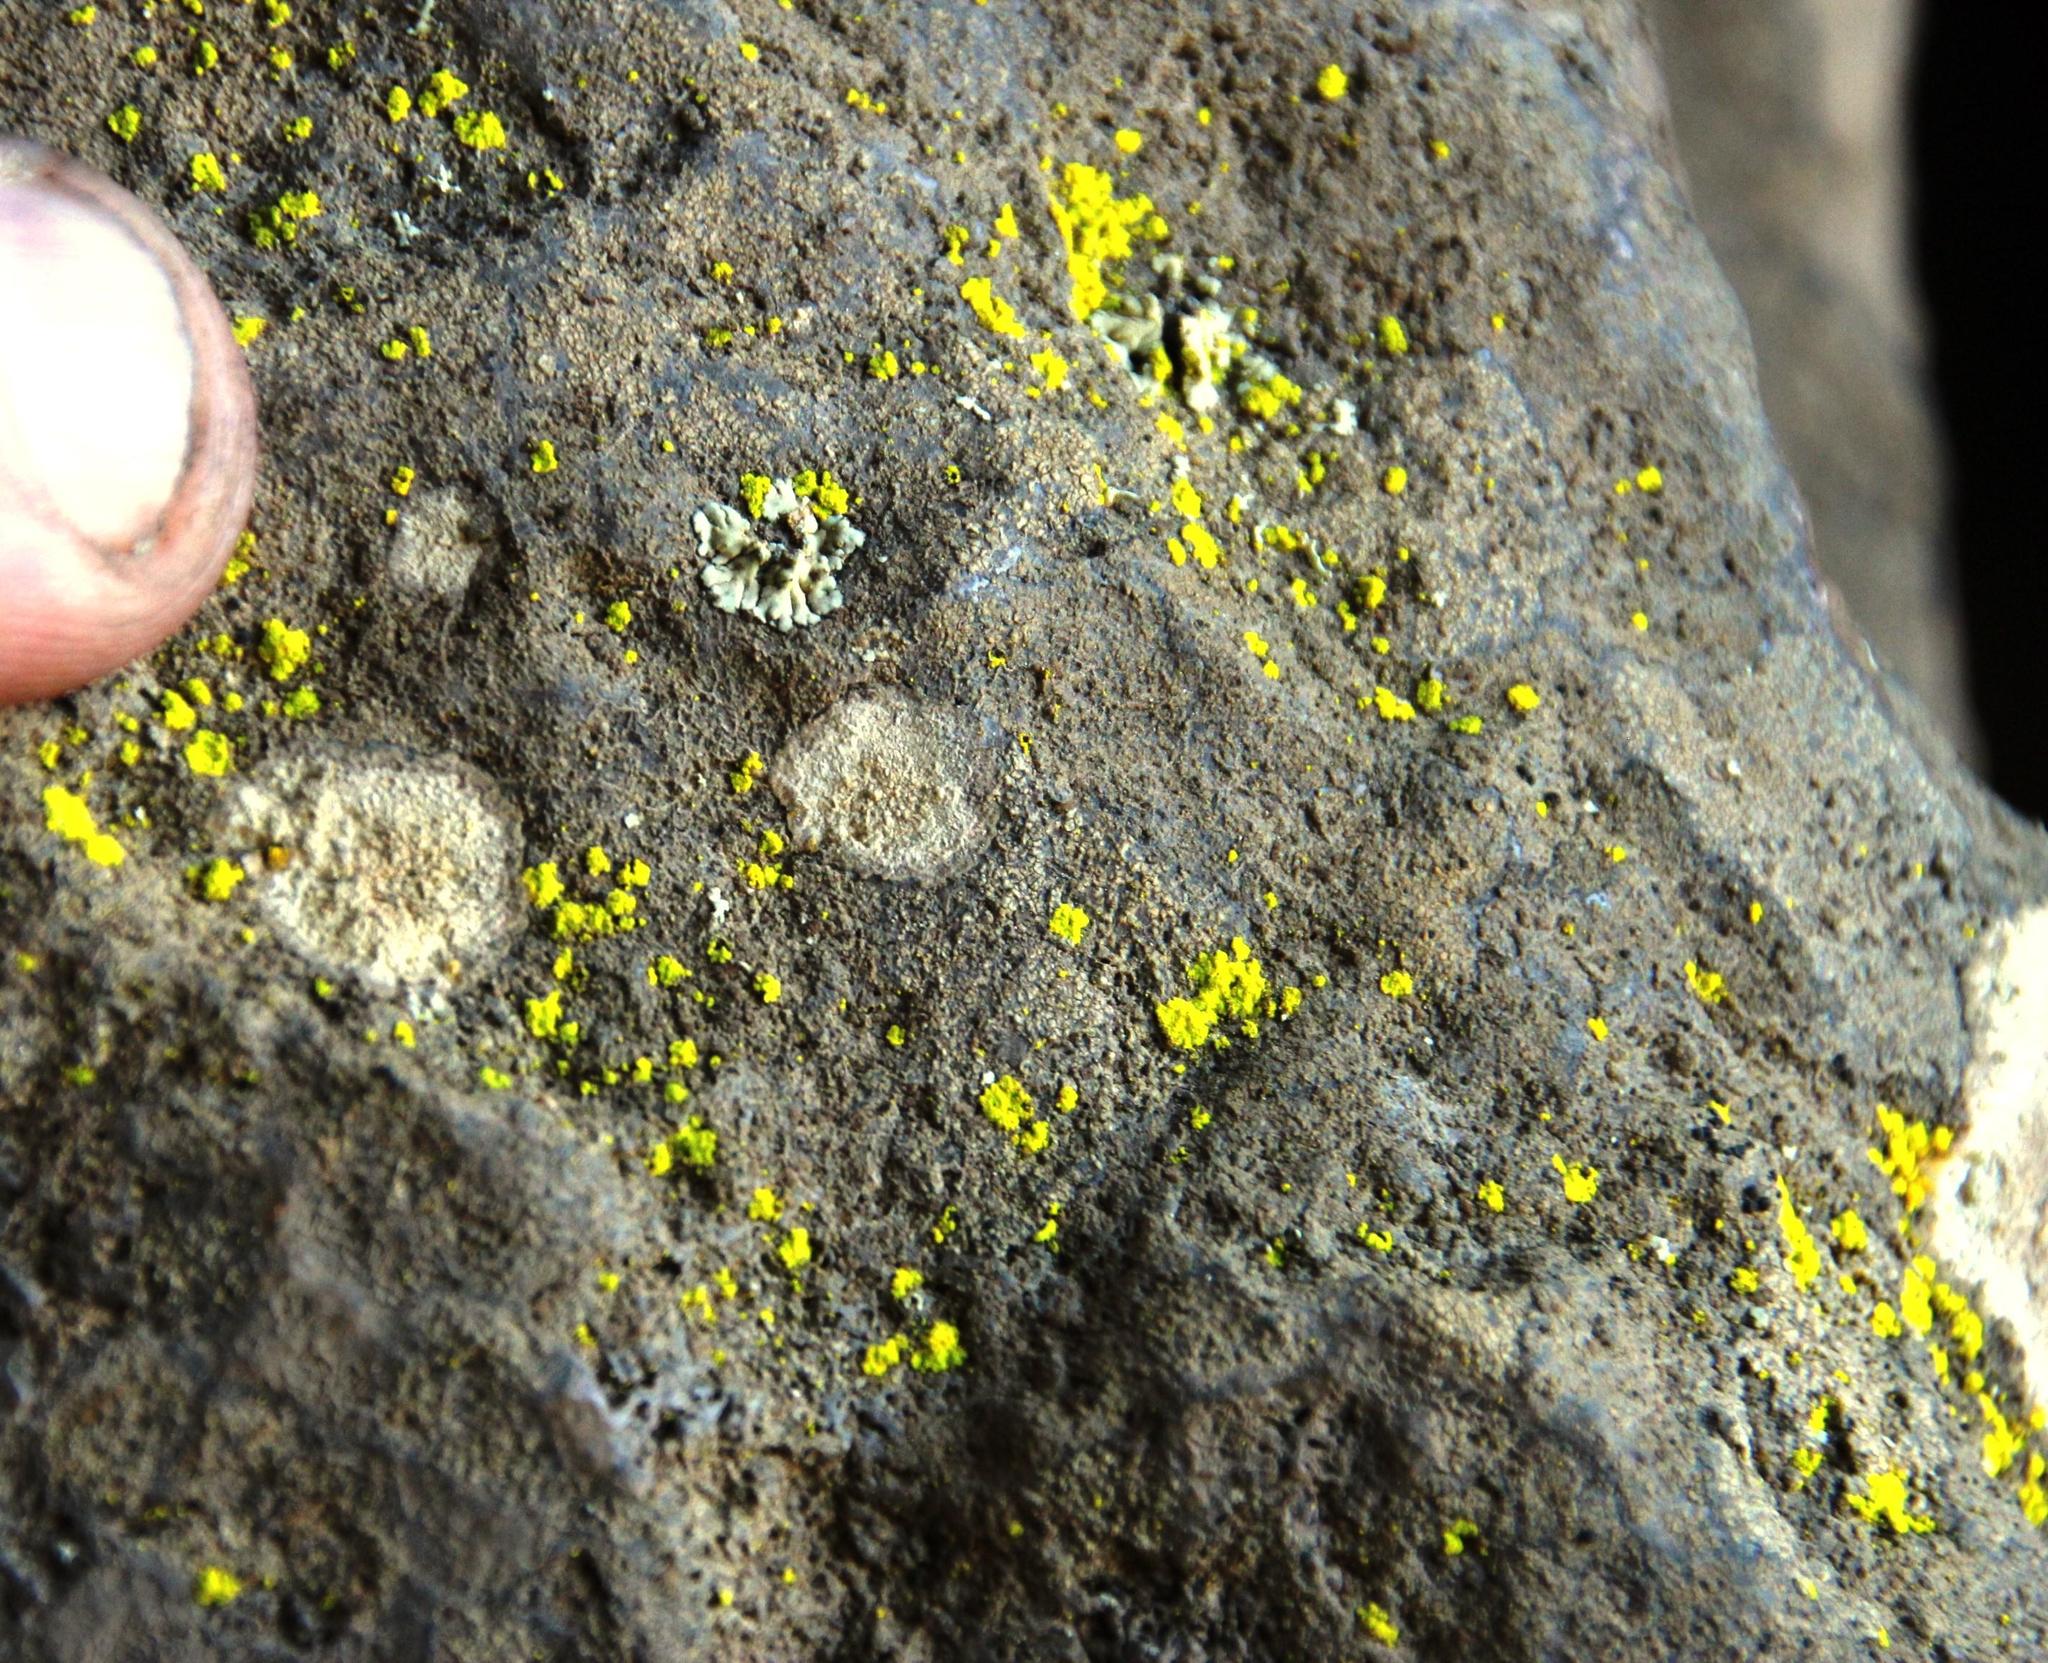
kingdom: Fungi
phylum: Ascomycota
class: Arthoniomycetes
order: Arthoniales
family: Chrysotrichaceae
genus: Chrysothrix
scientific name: Chrysothrix candelaris
